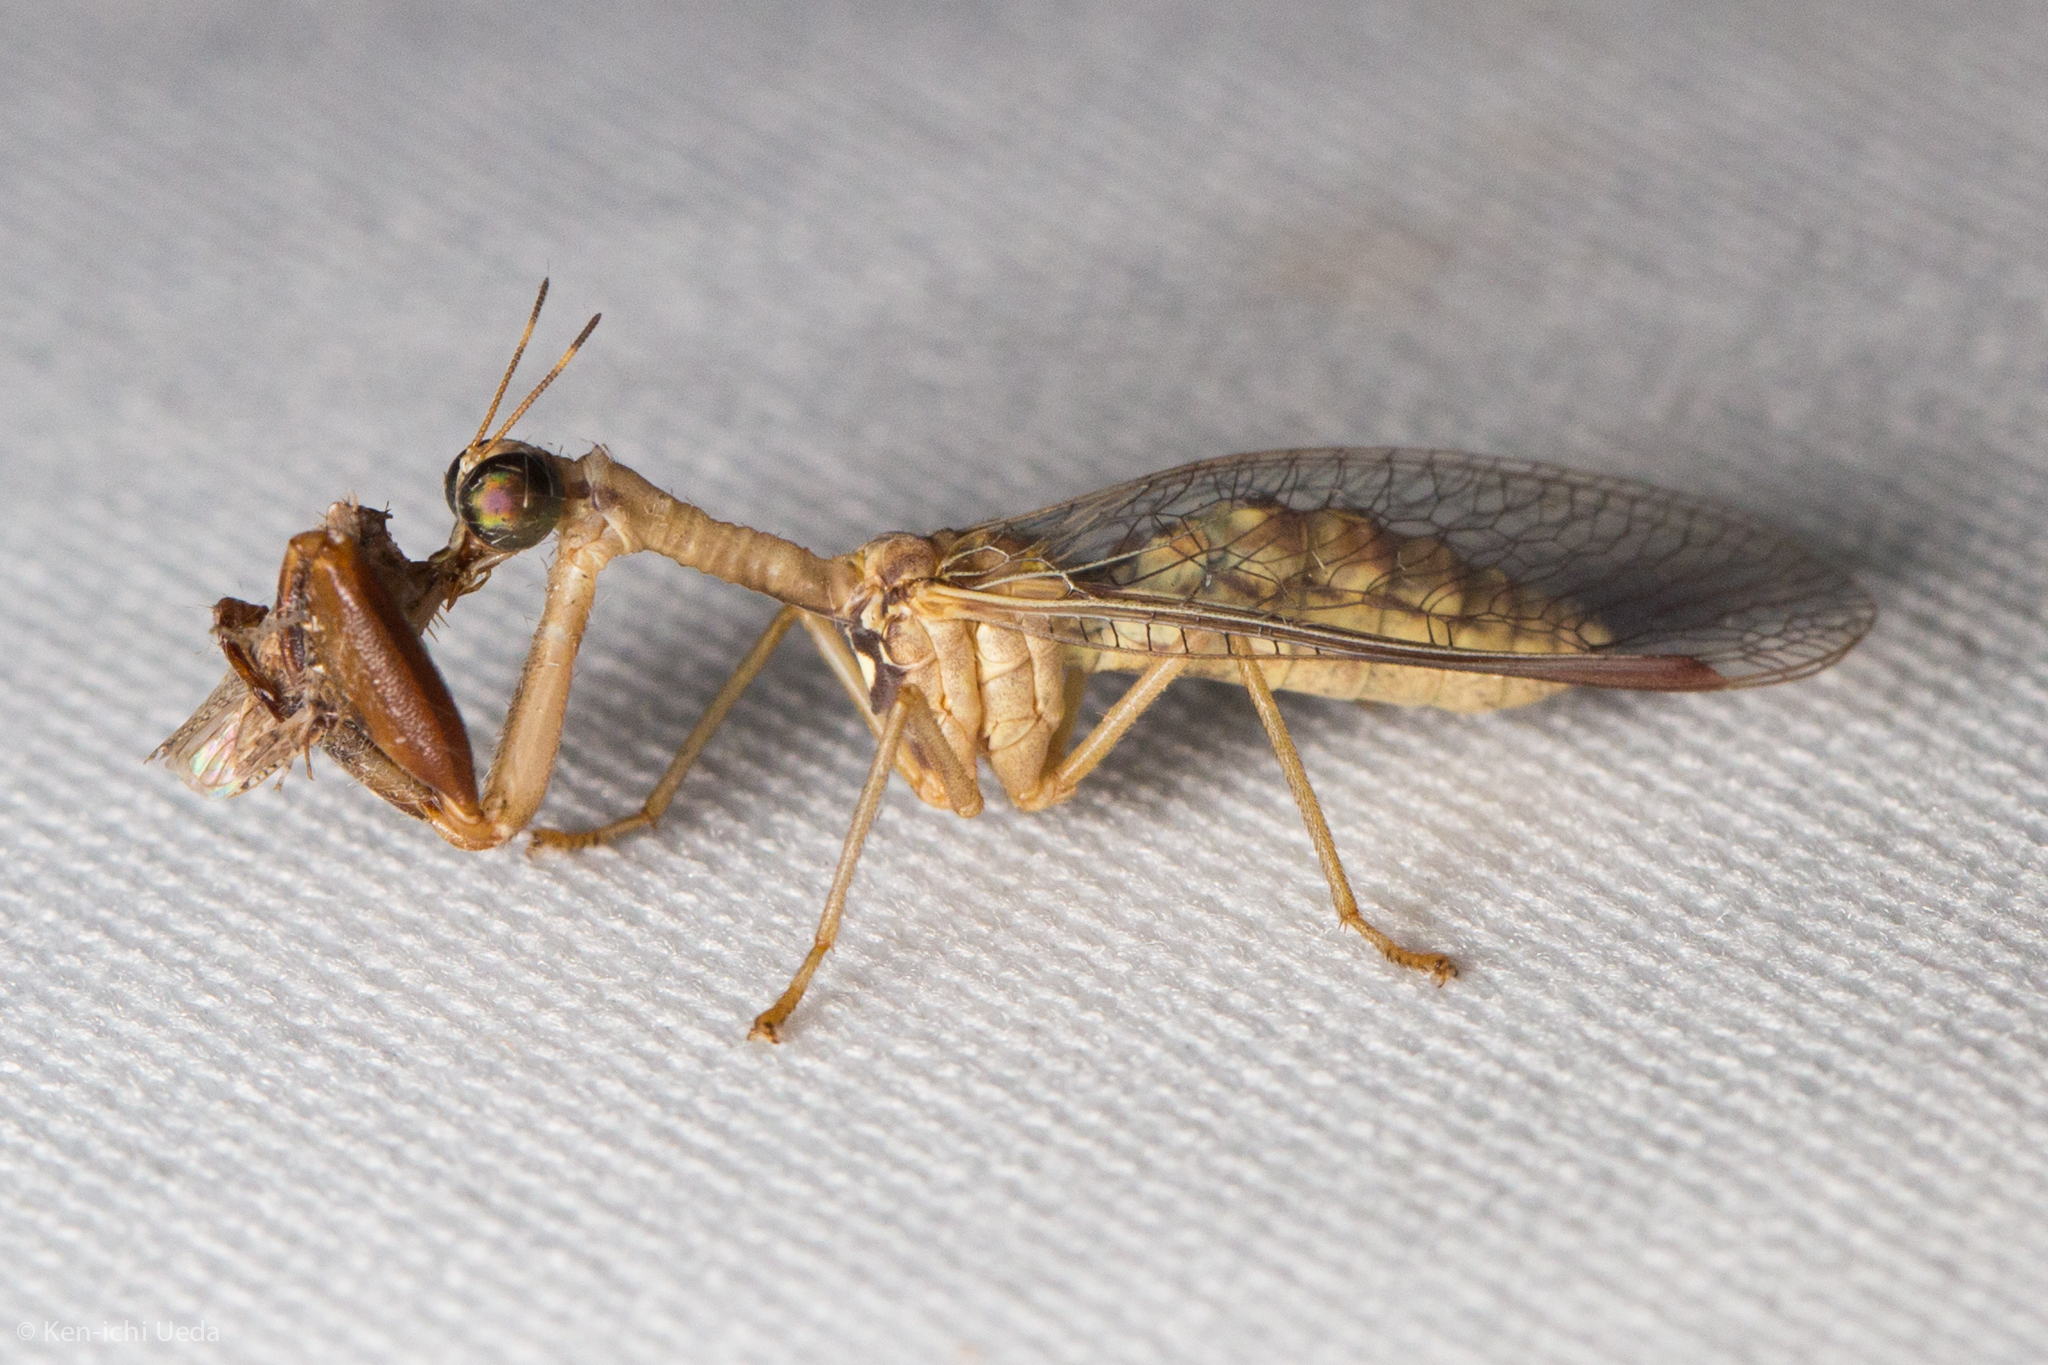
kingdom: Animalia
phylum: Arthropoda
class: Insecta
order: Neuroptera
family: Mantispidae
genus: Dicromantispa
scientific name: Dicromantispa sayi
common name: Say's mantidfly
